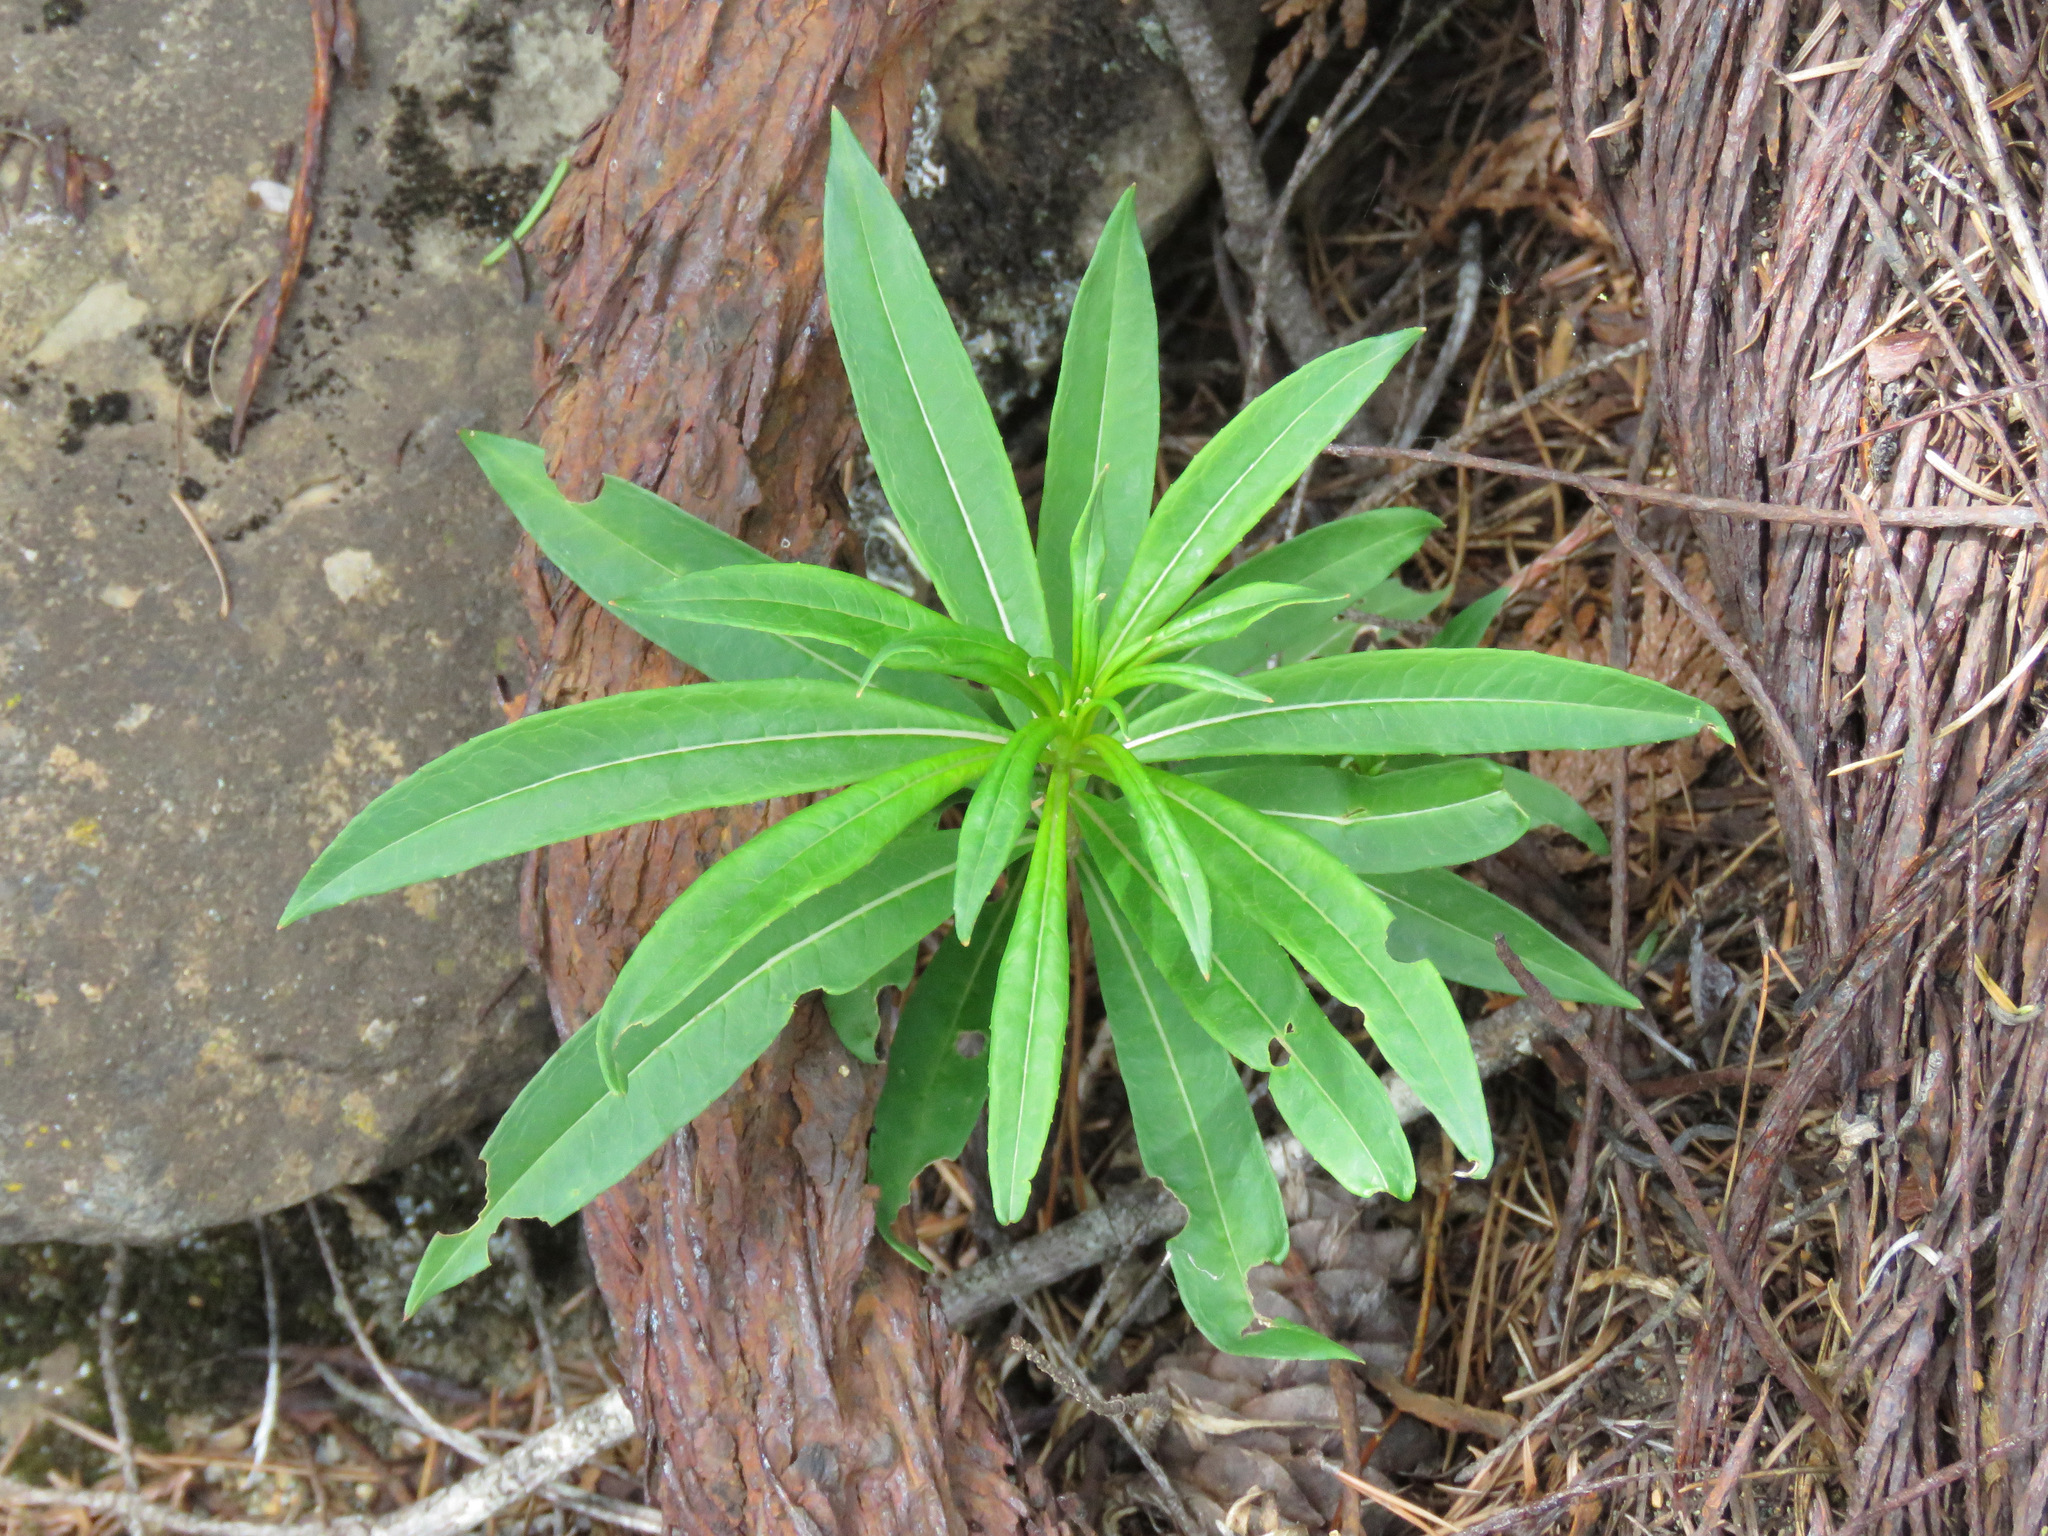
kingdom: Plantae
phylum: Tracheophyta
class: Magnoliopsida
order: Myrtales
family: Onagraceae
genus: Chamaenerion
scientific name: Chamaenerion angustifolium
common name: Fireweed
